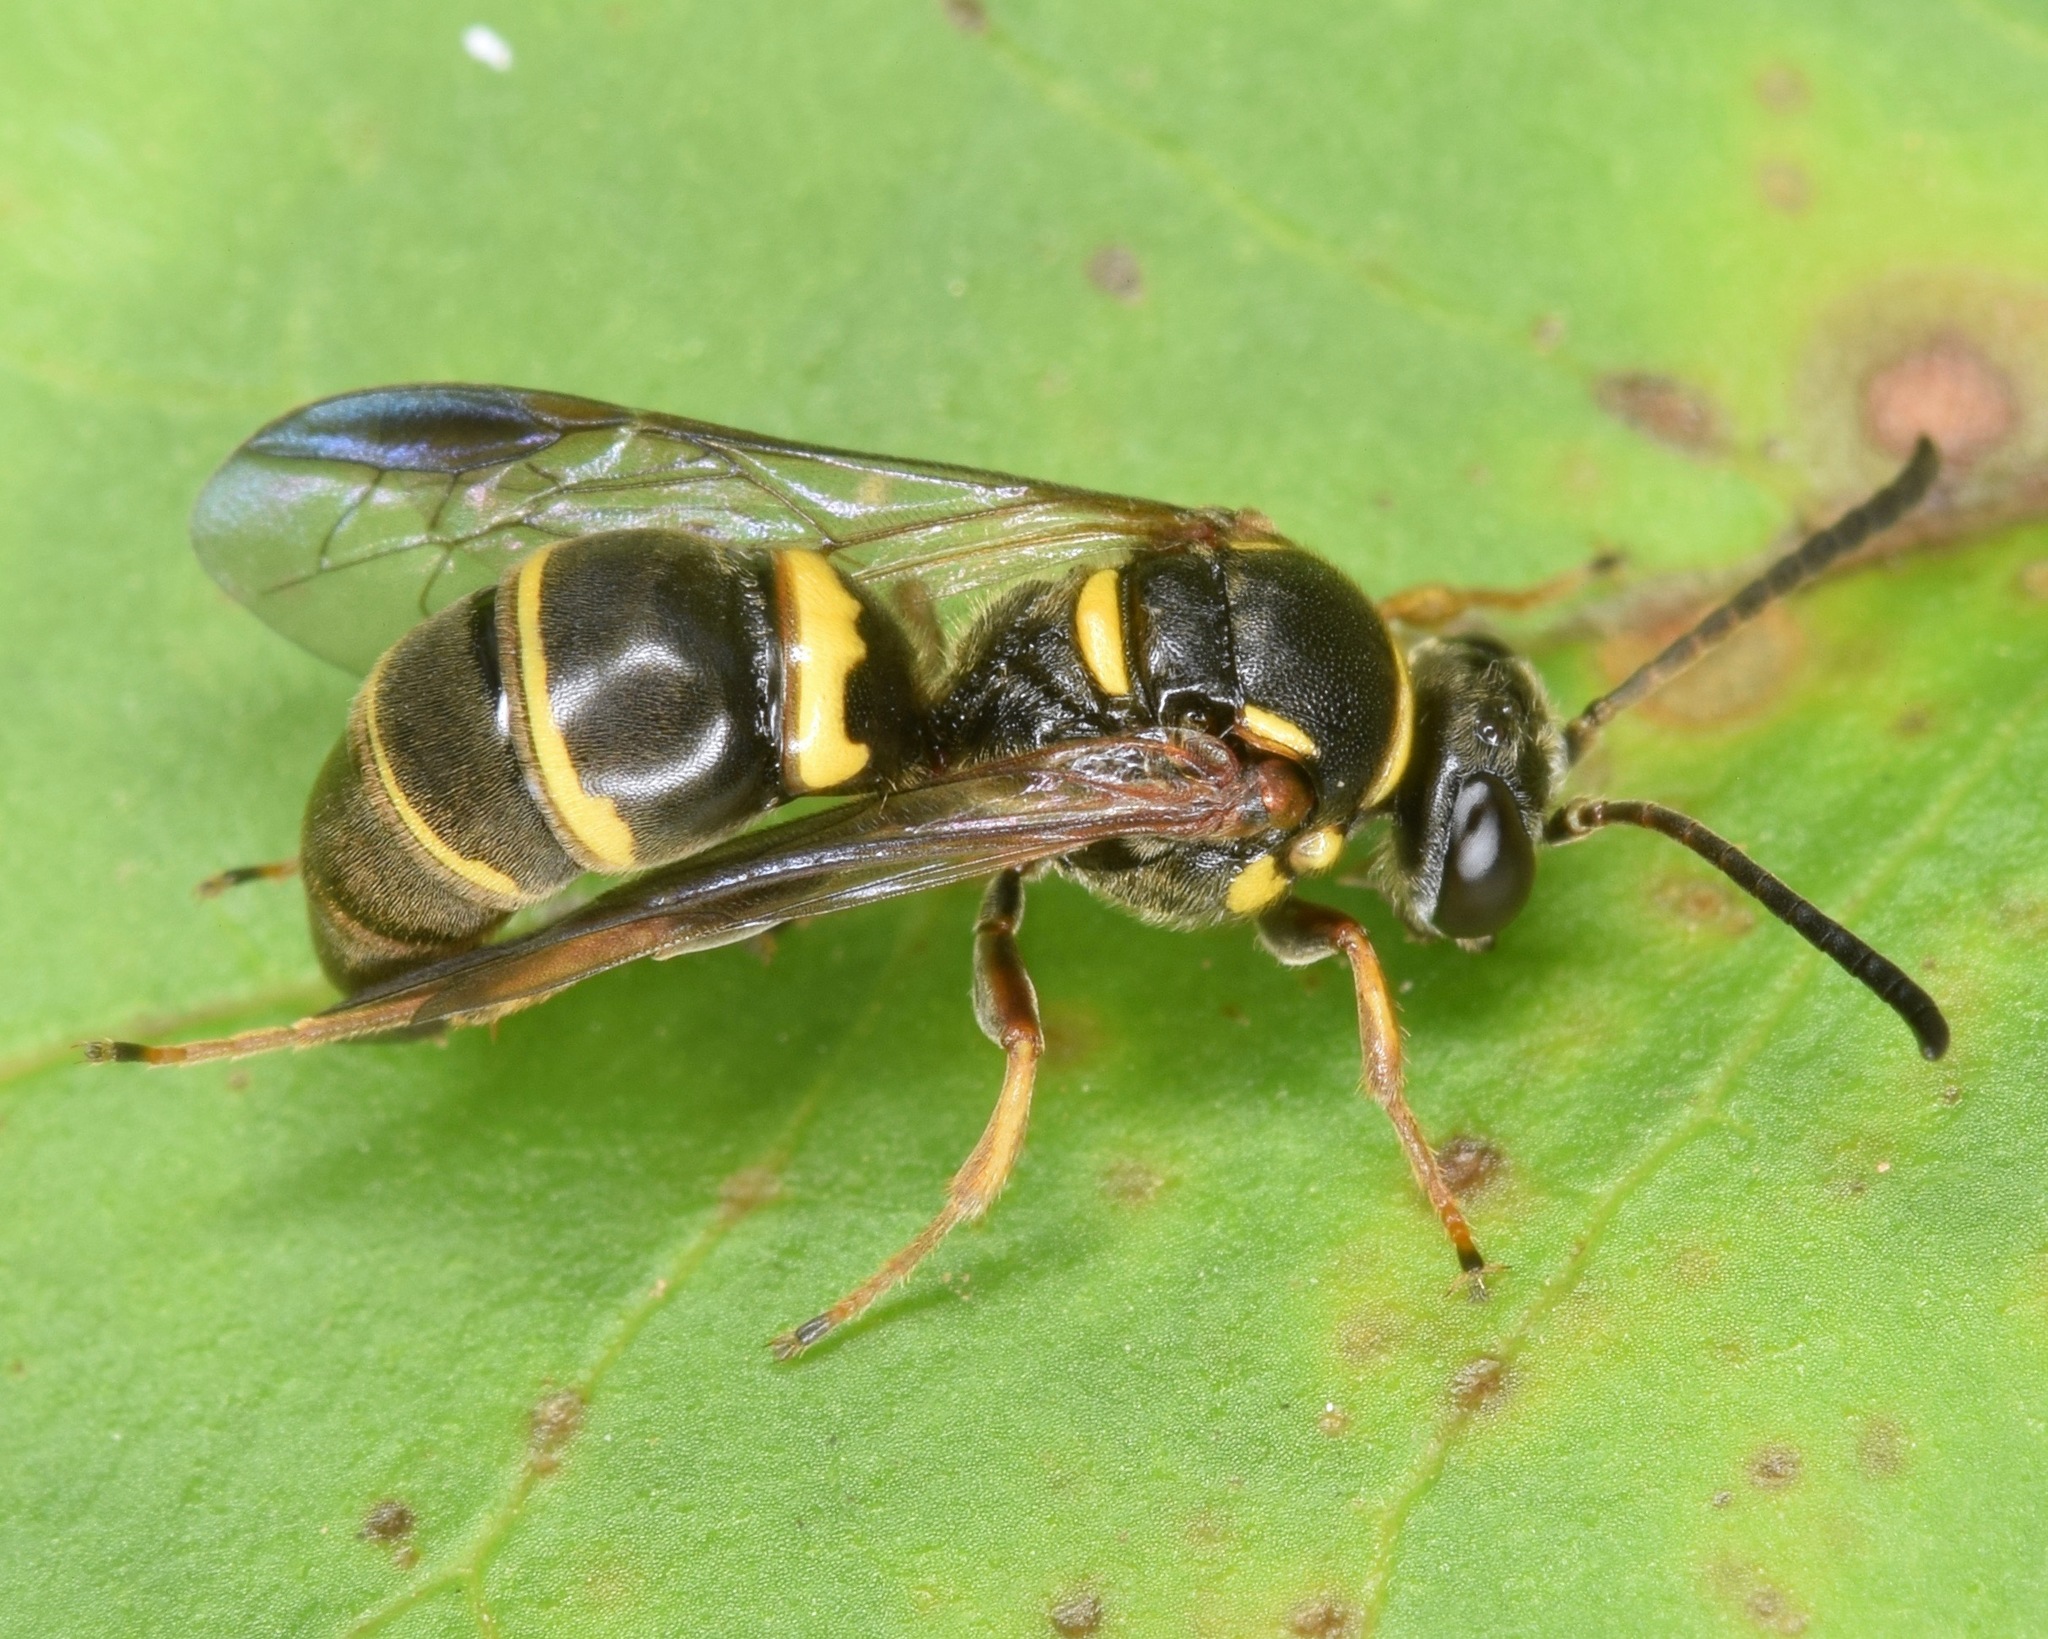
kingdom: Animalia
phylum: Arthropoda
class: Insecta
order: Hymenoptera
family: Crabronidae
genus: Argogorytes
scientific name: Argogorytes nigrifrons
